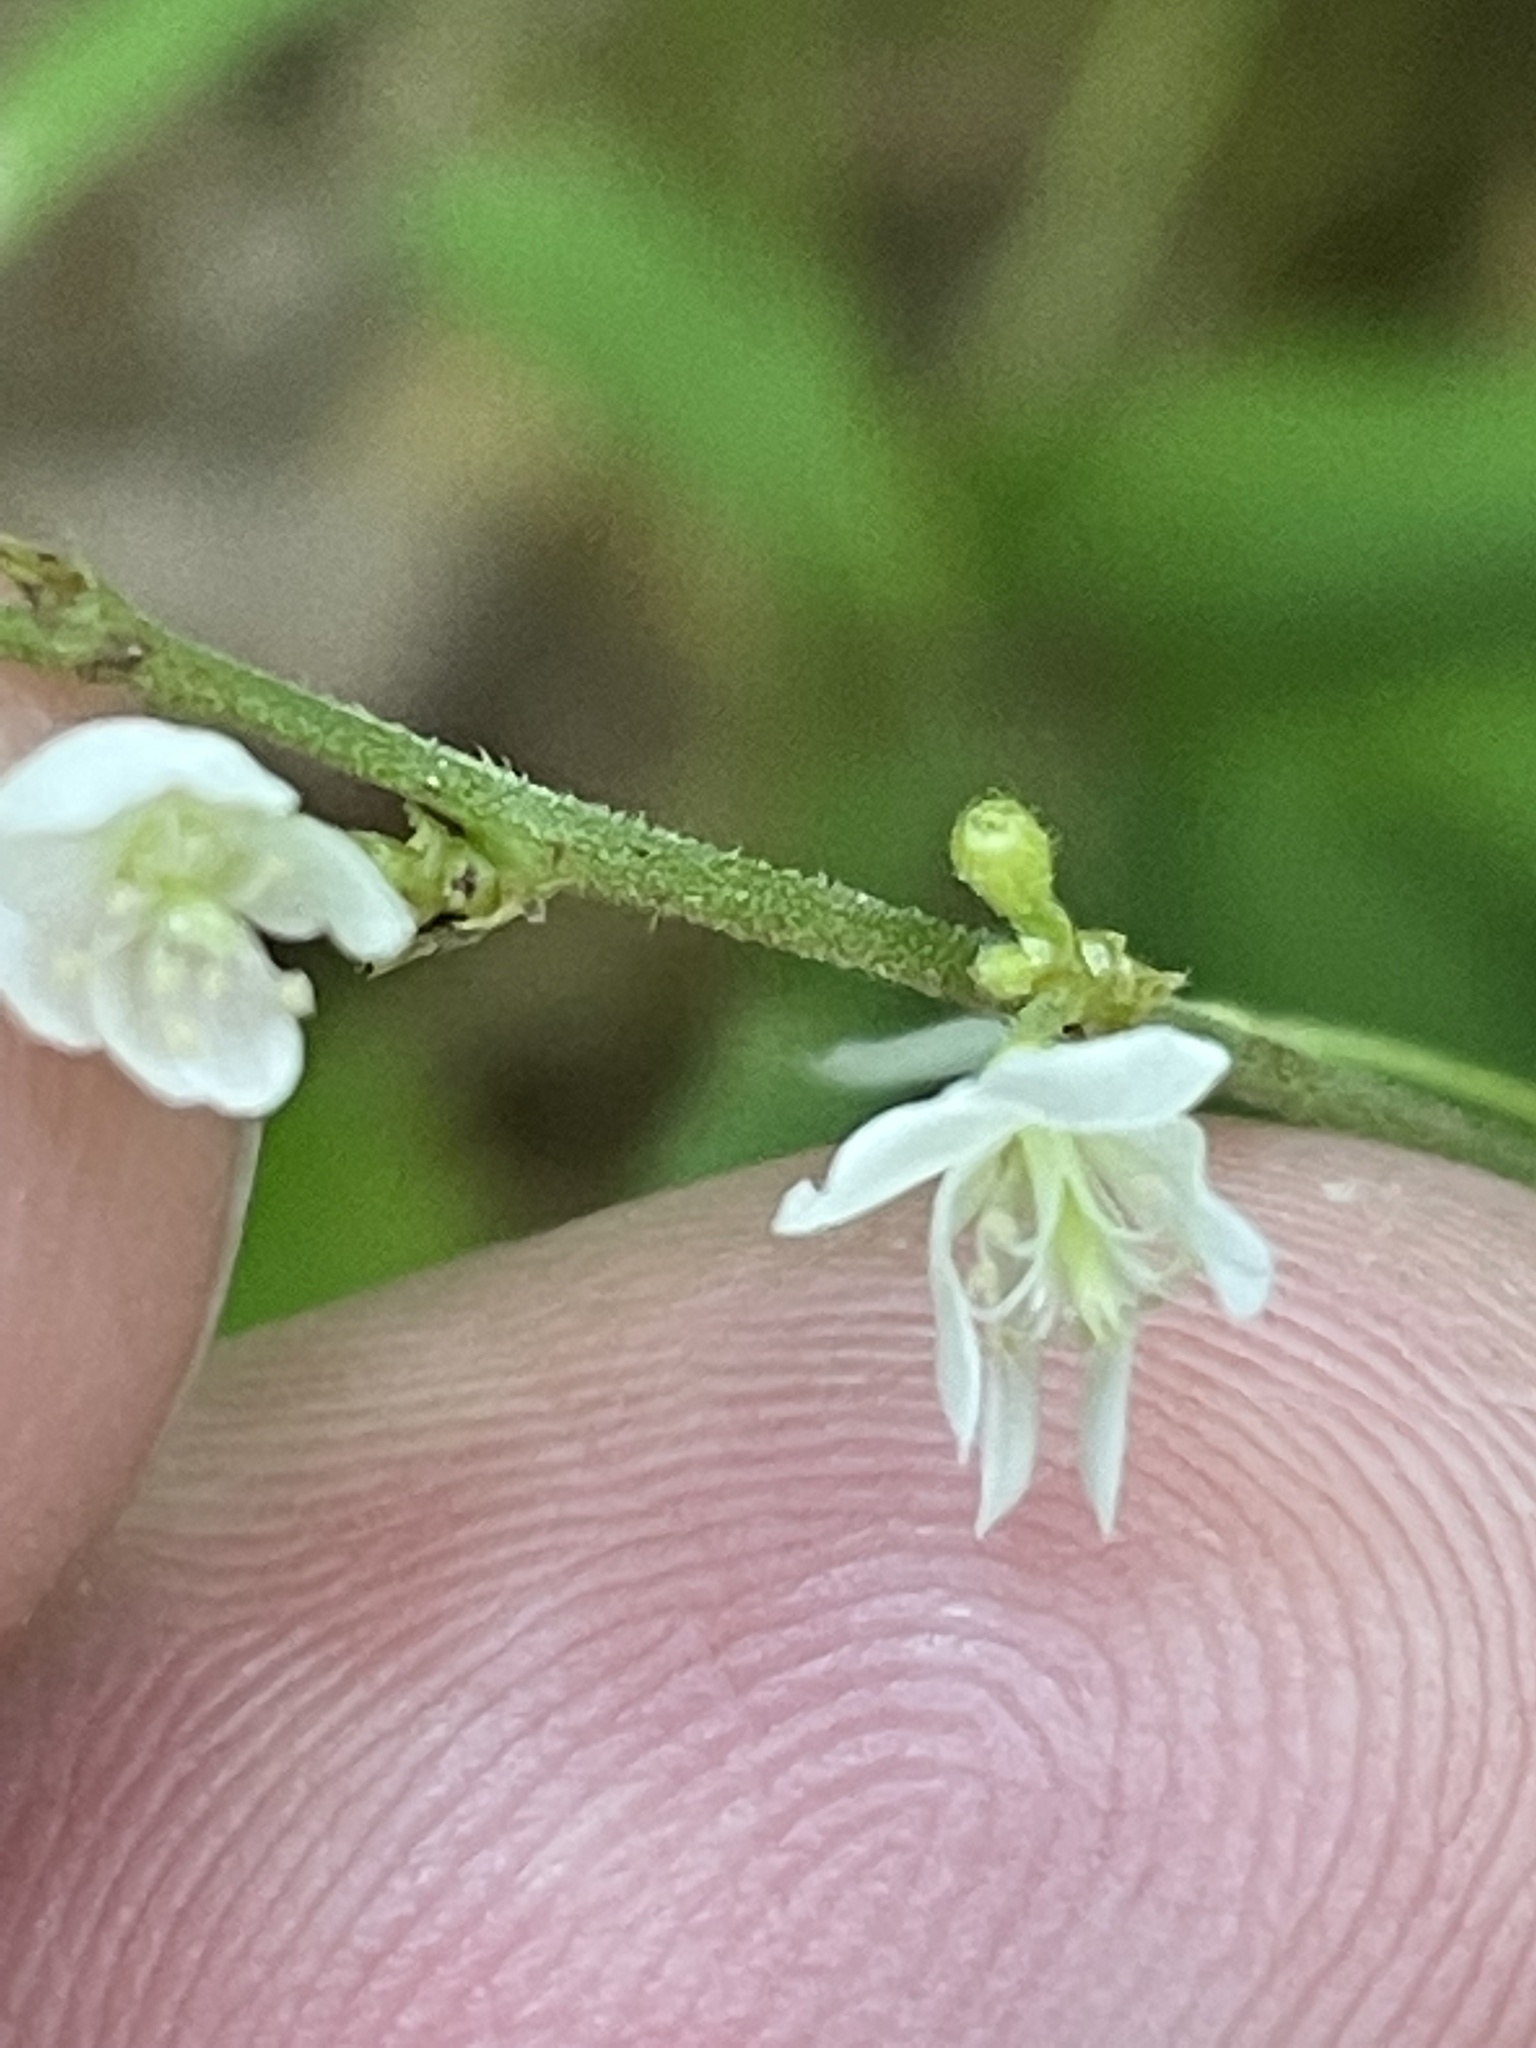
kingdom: Plantae
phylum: Tracheophyta
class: Magnoliopsida
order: Fabales
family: Fabaceae
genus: Hylodesmum
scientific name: Hylodesmum pauciflorum
